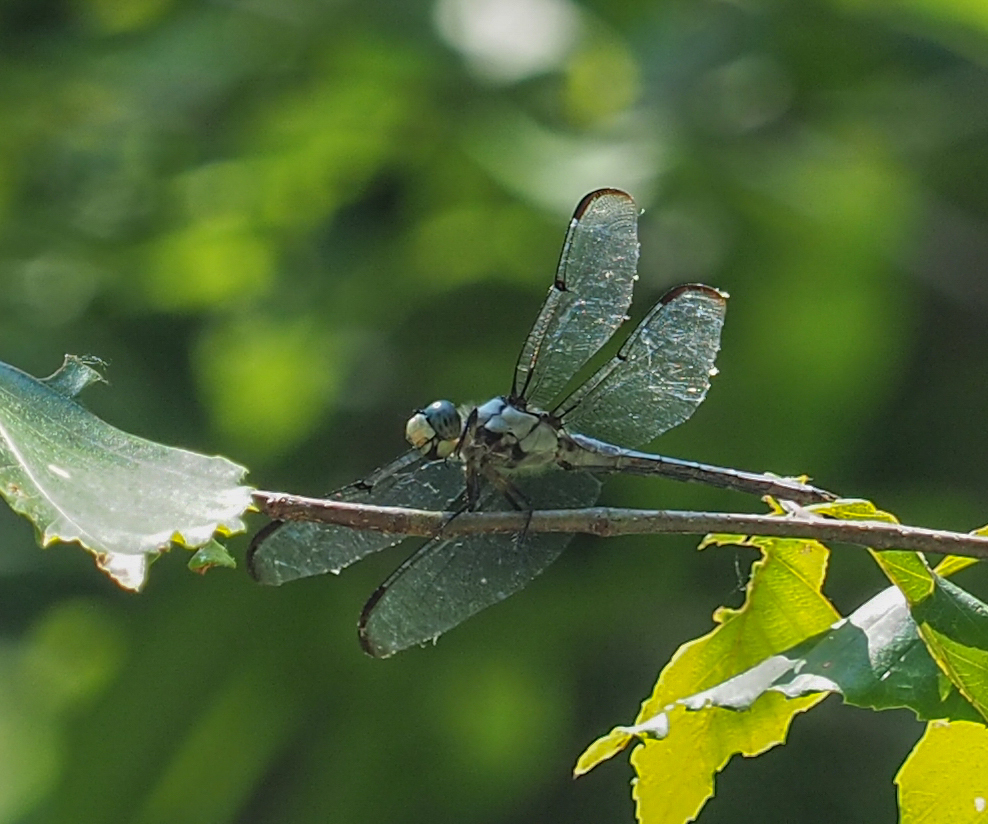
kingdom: Animalia
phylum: Arthropoda
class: Insecta
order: Odonata
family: Libellulidae
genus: Libellula
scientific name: Libellula vibrans
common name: Great blue skimmer
